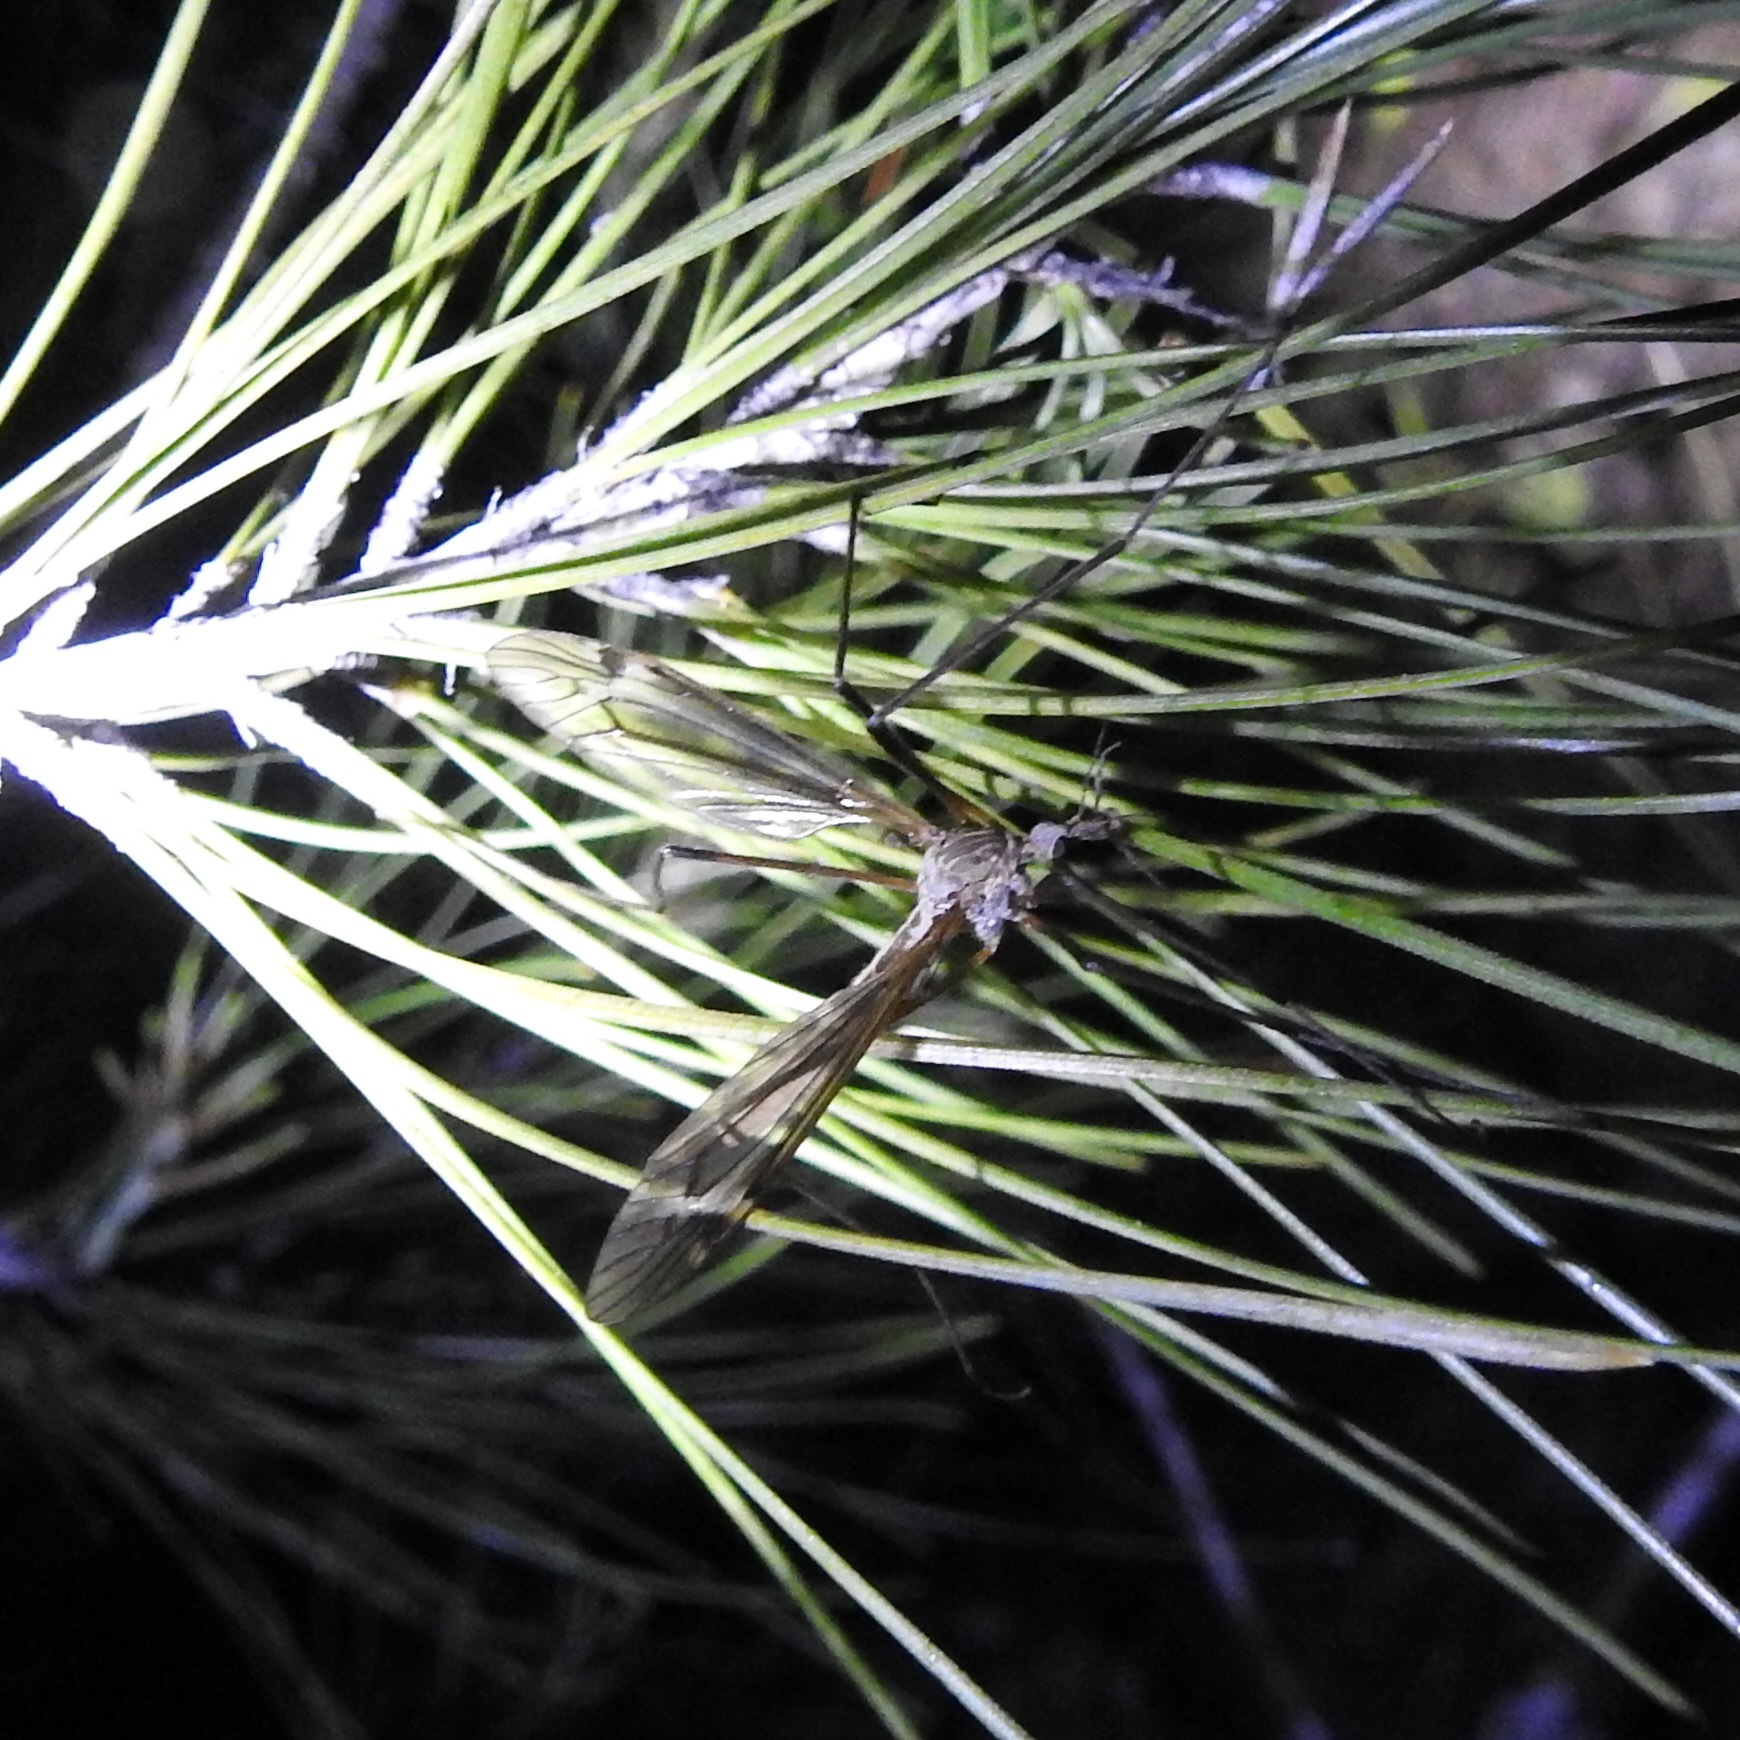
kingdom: Plantae
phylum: Tracheophyta
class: Pinopsida
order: Pinales
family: Pinaceae
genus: Pinus
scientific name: Pinus sabiniana
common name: Bull pine
